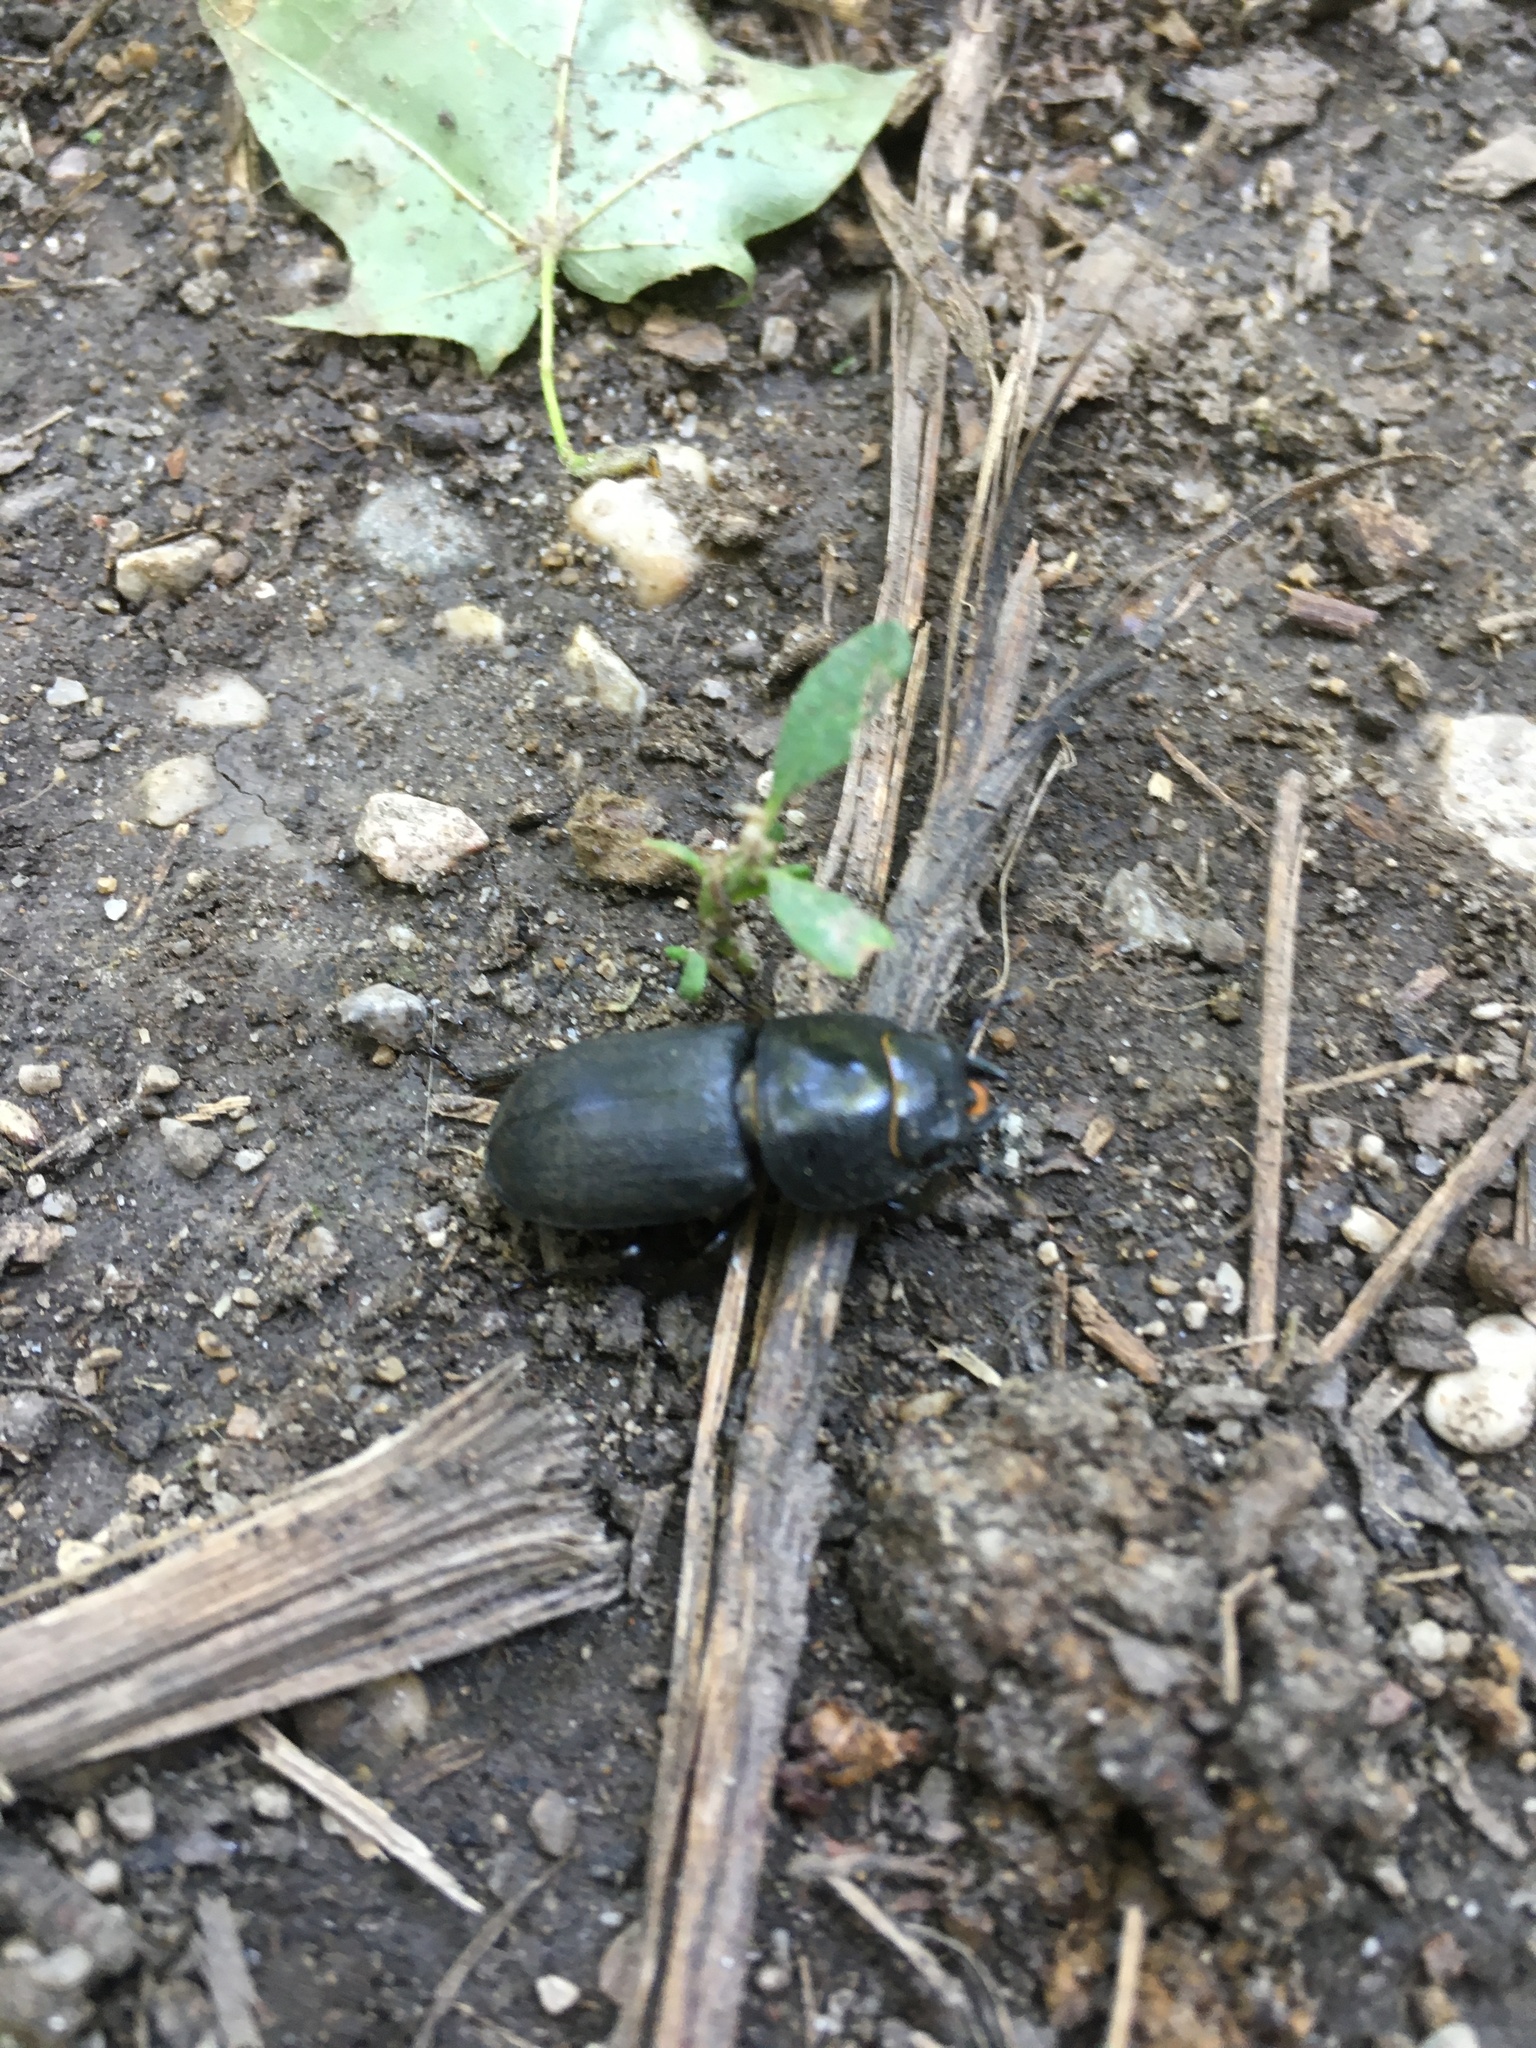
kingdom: Animalia
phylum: Arthropoda
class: Insecta
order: Coleoptera
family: Lucanidae
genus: Dorcus
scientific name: Dorcus parallelipipedus
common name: Lesser stag beetle
